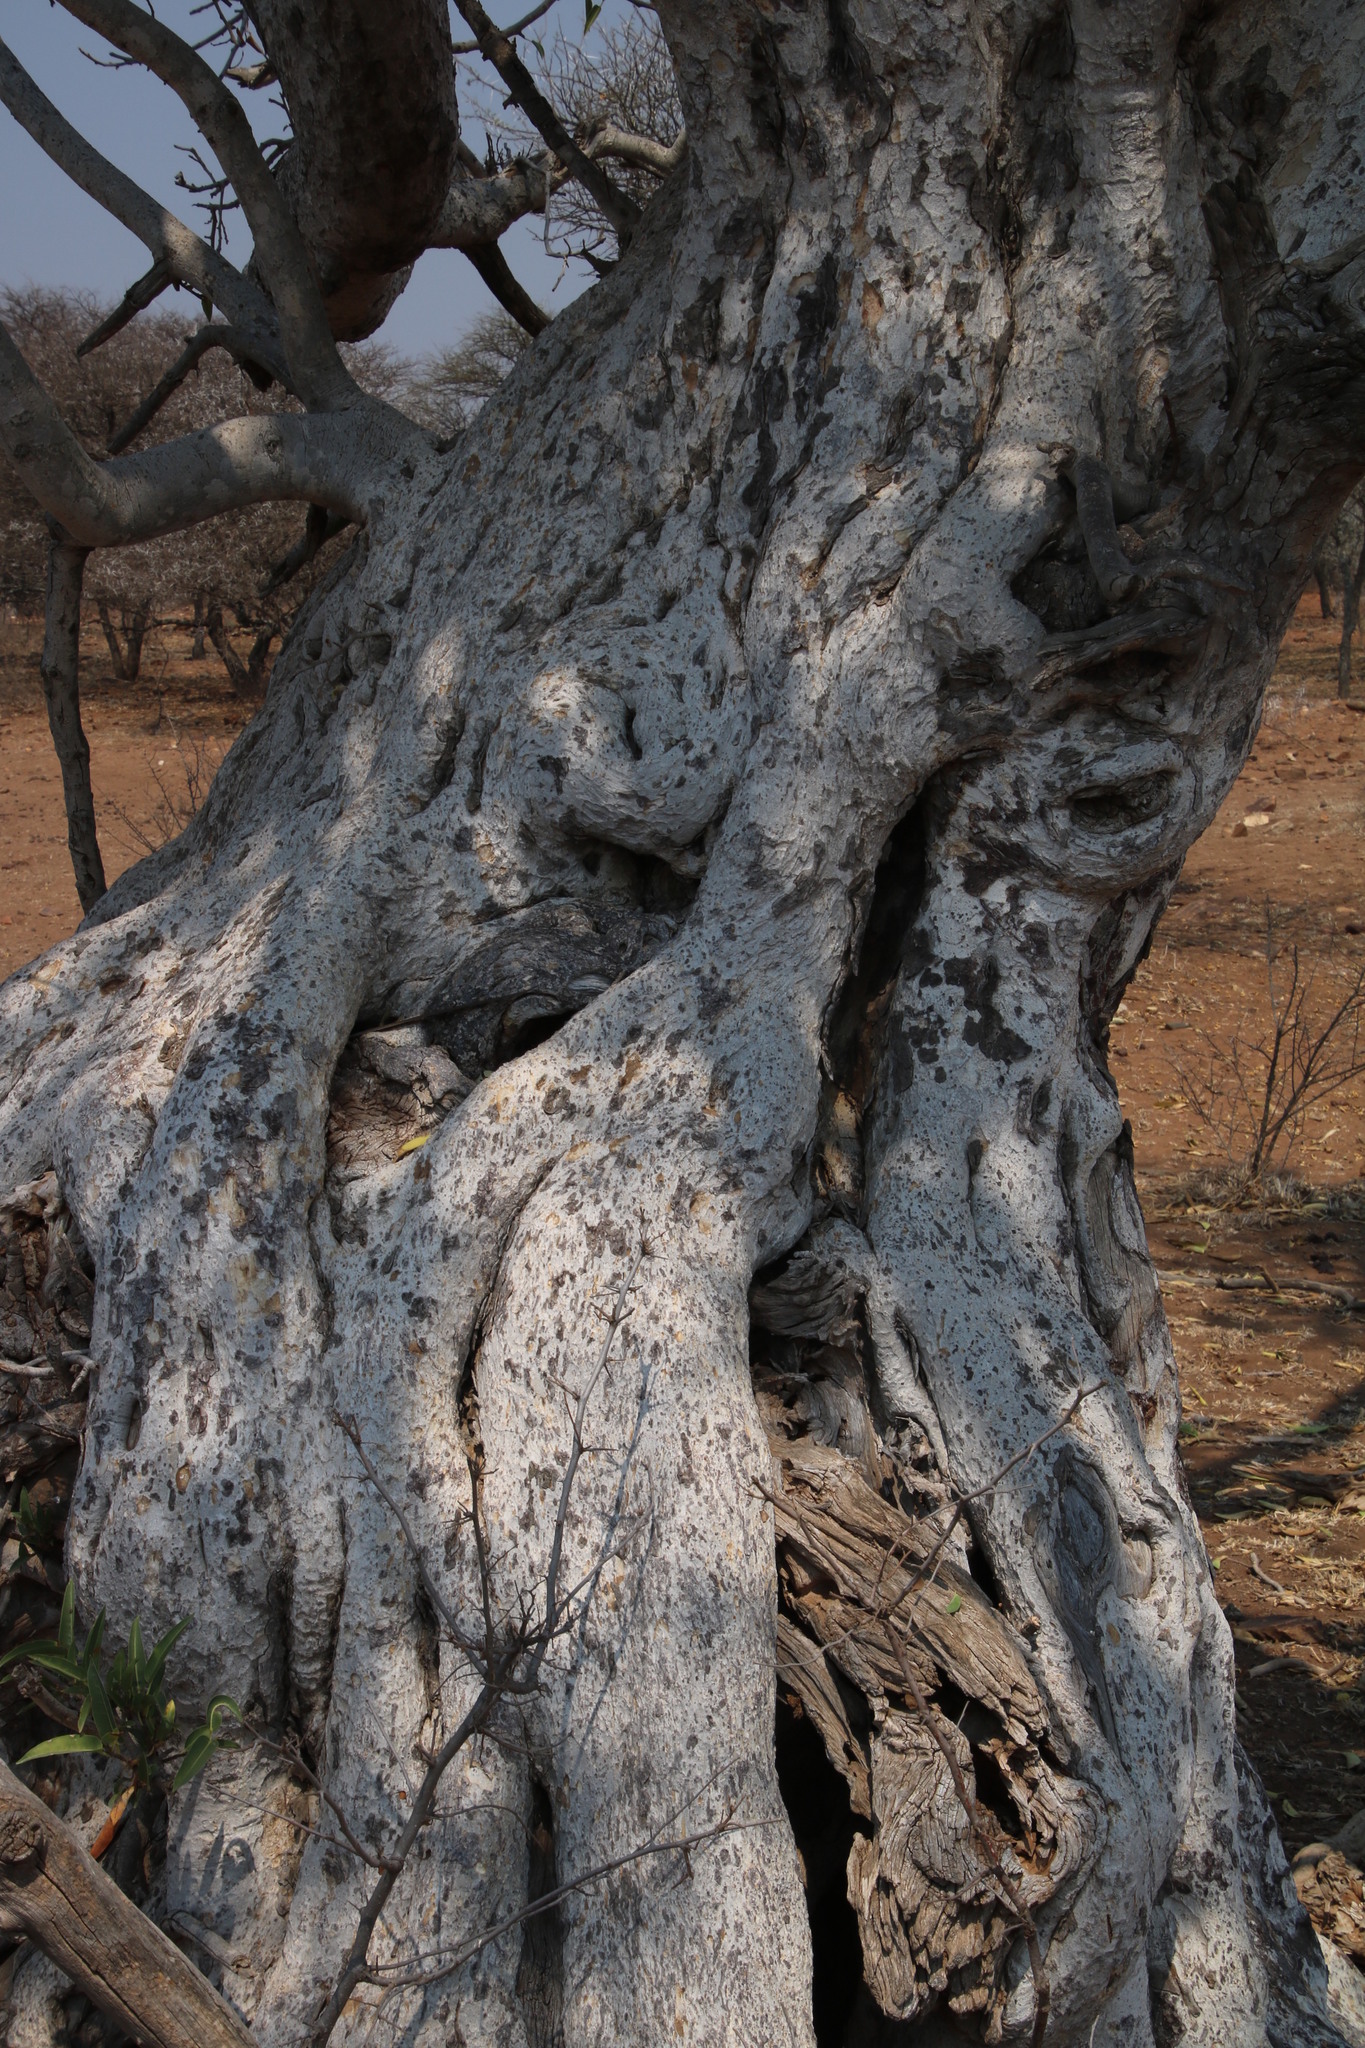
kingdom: Plantae
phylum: Tracheophyta
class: Magnoliopsida
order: Rosales
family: Moraceae
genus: Ficus
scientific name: Ficus salicifolia
